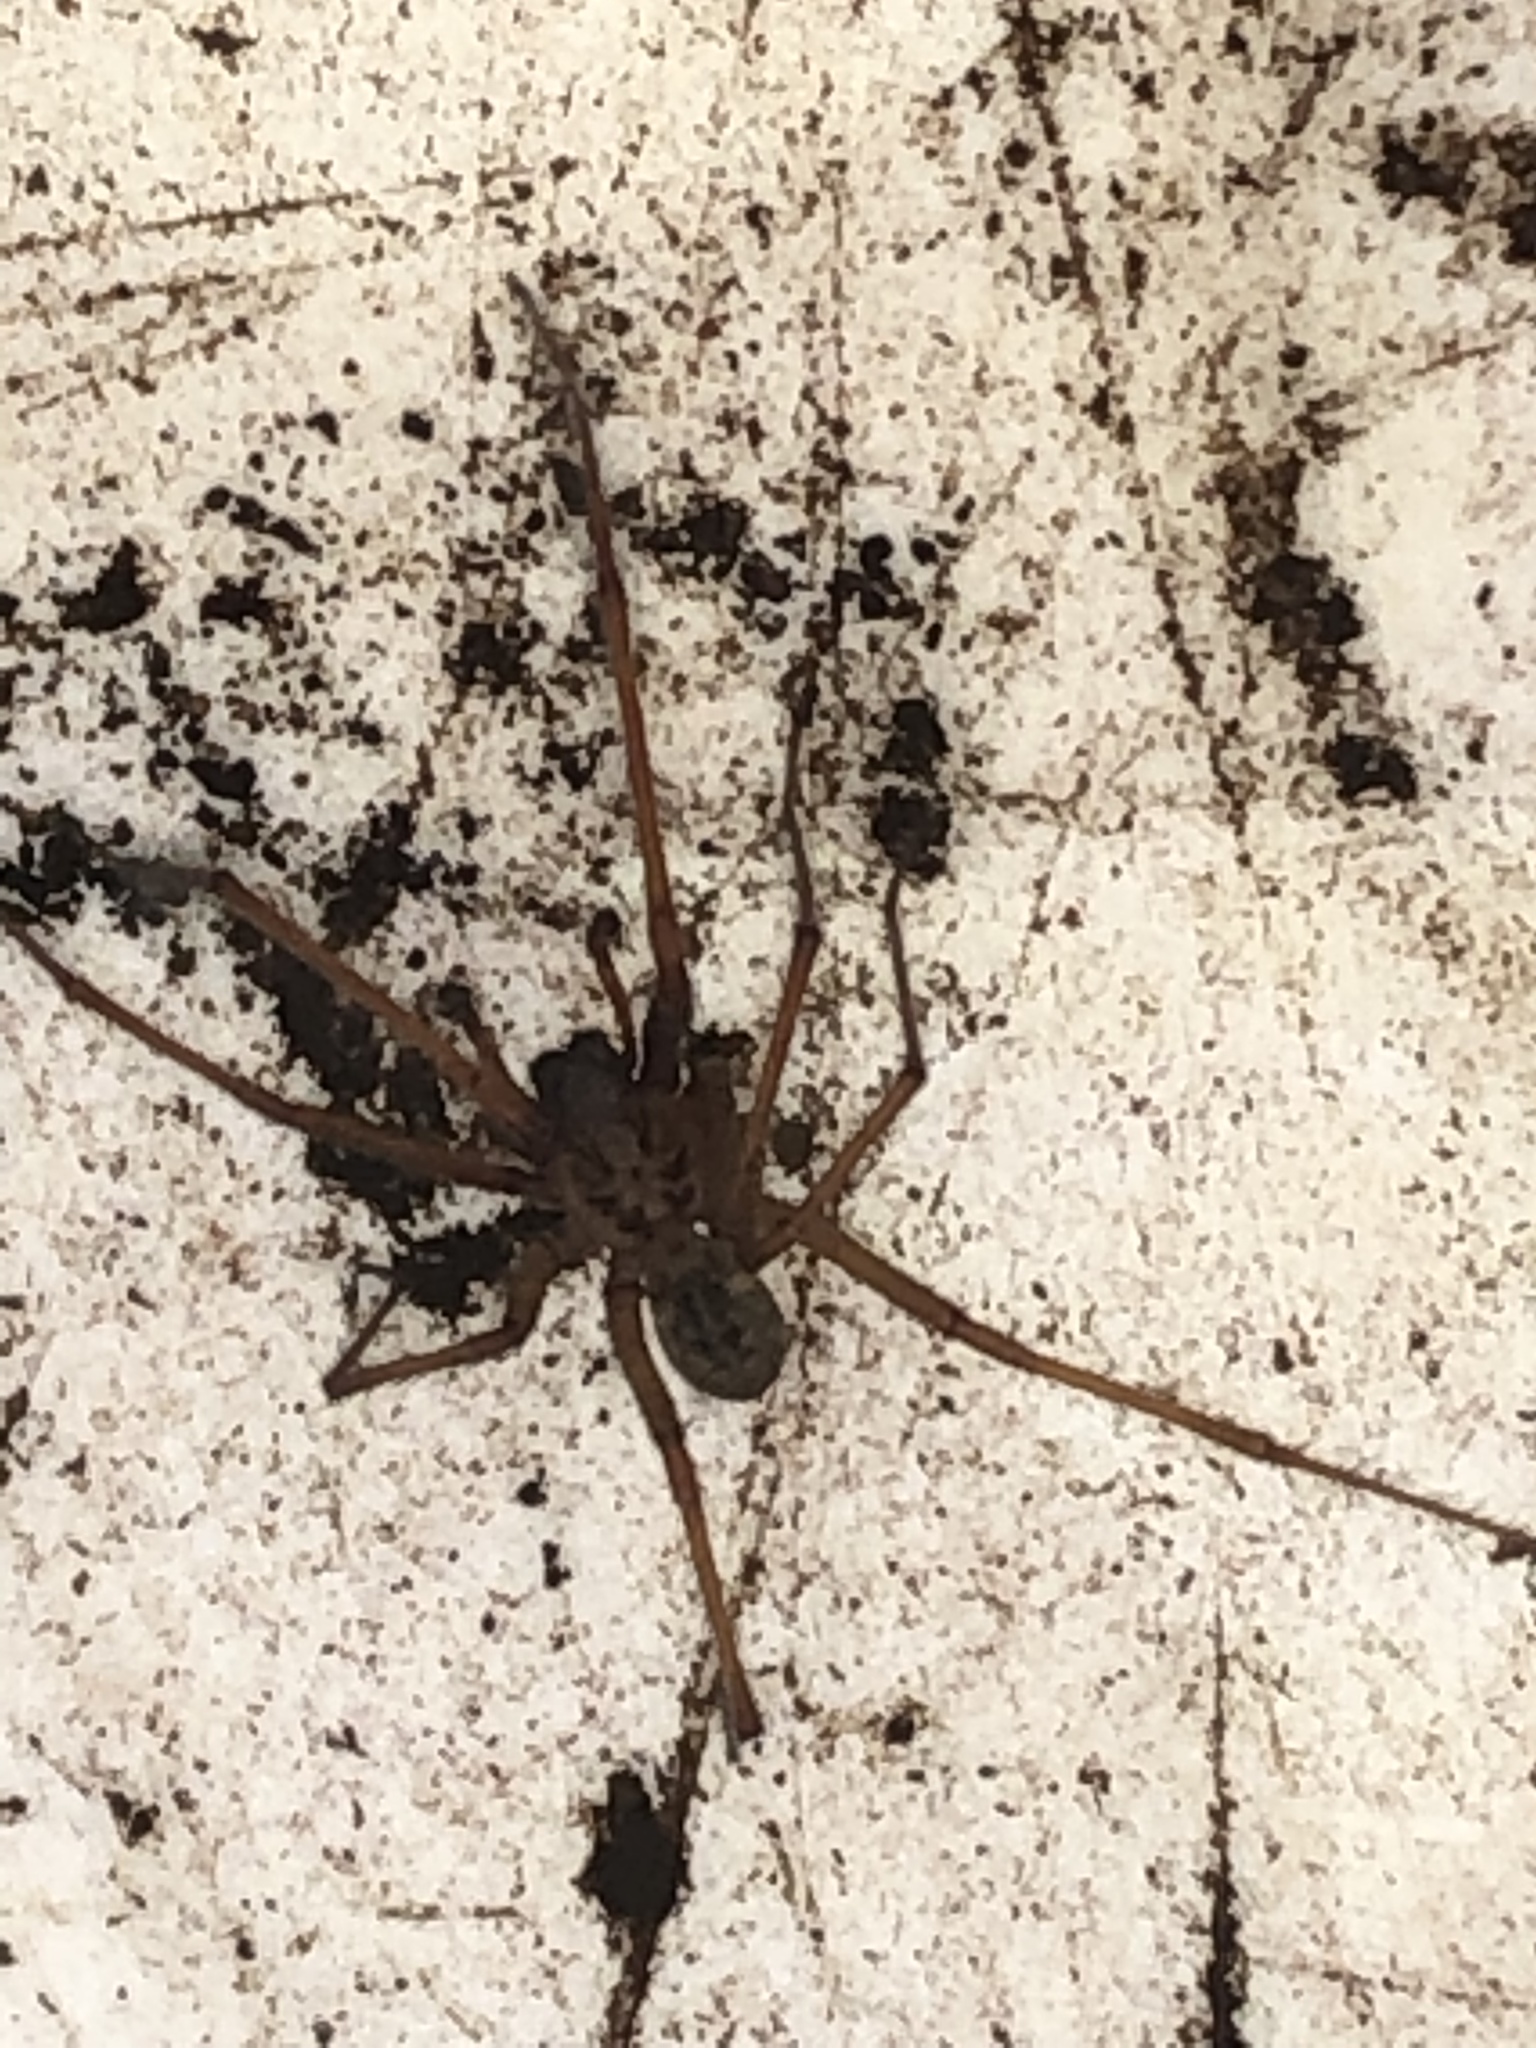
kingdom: Animalia
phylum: Arthropoda
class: Arachnida
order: Araneae
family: Agelenidae
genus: Eratigena
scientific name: Eratigena atrica
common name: Giant house spider
